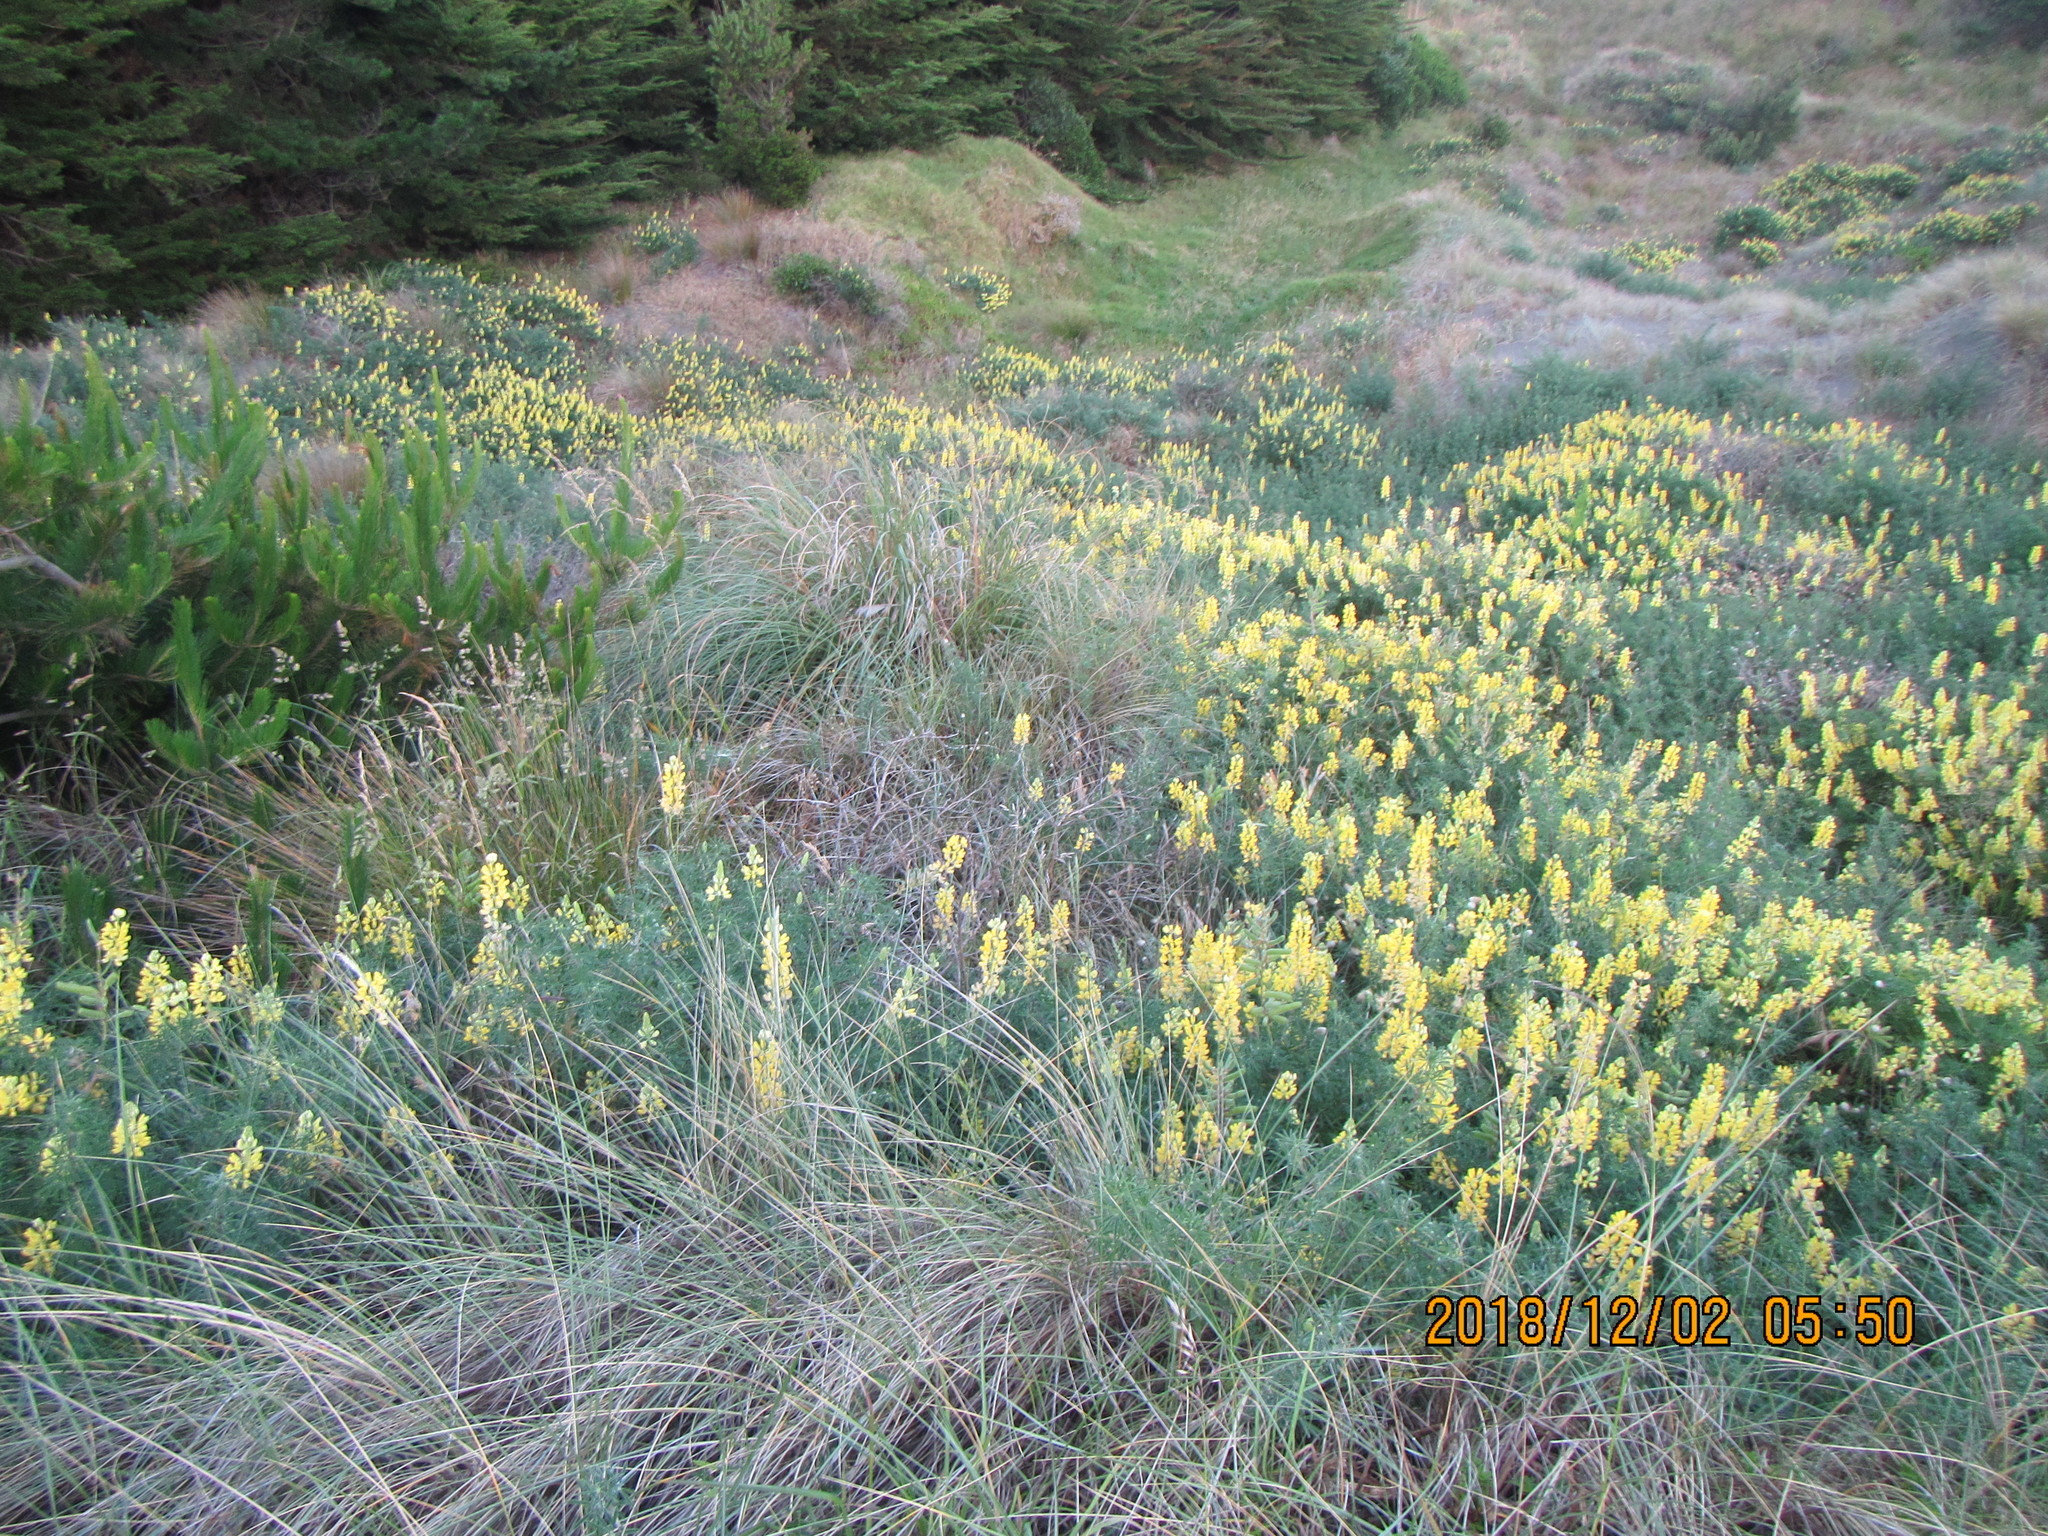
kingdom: Plantae
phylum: Tracheophyta
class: Magnoliopsida
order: Fabales
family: Fabaceae
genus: Lupinus
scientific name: Lupinus arboreus
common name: Yellow bush lupine
